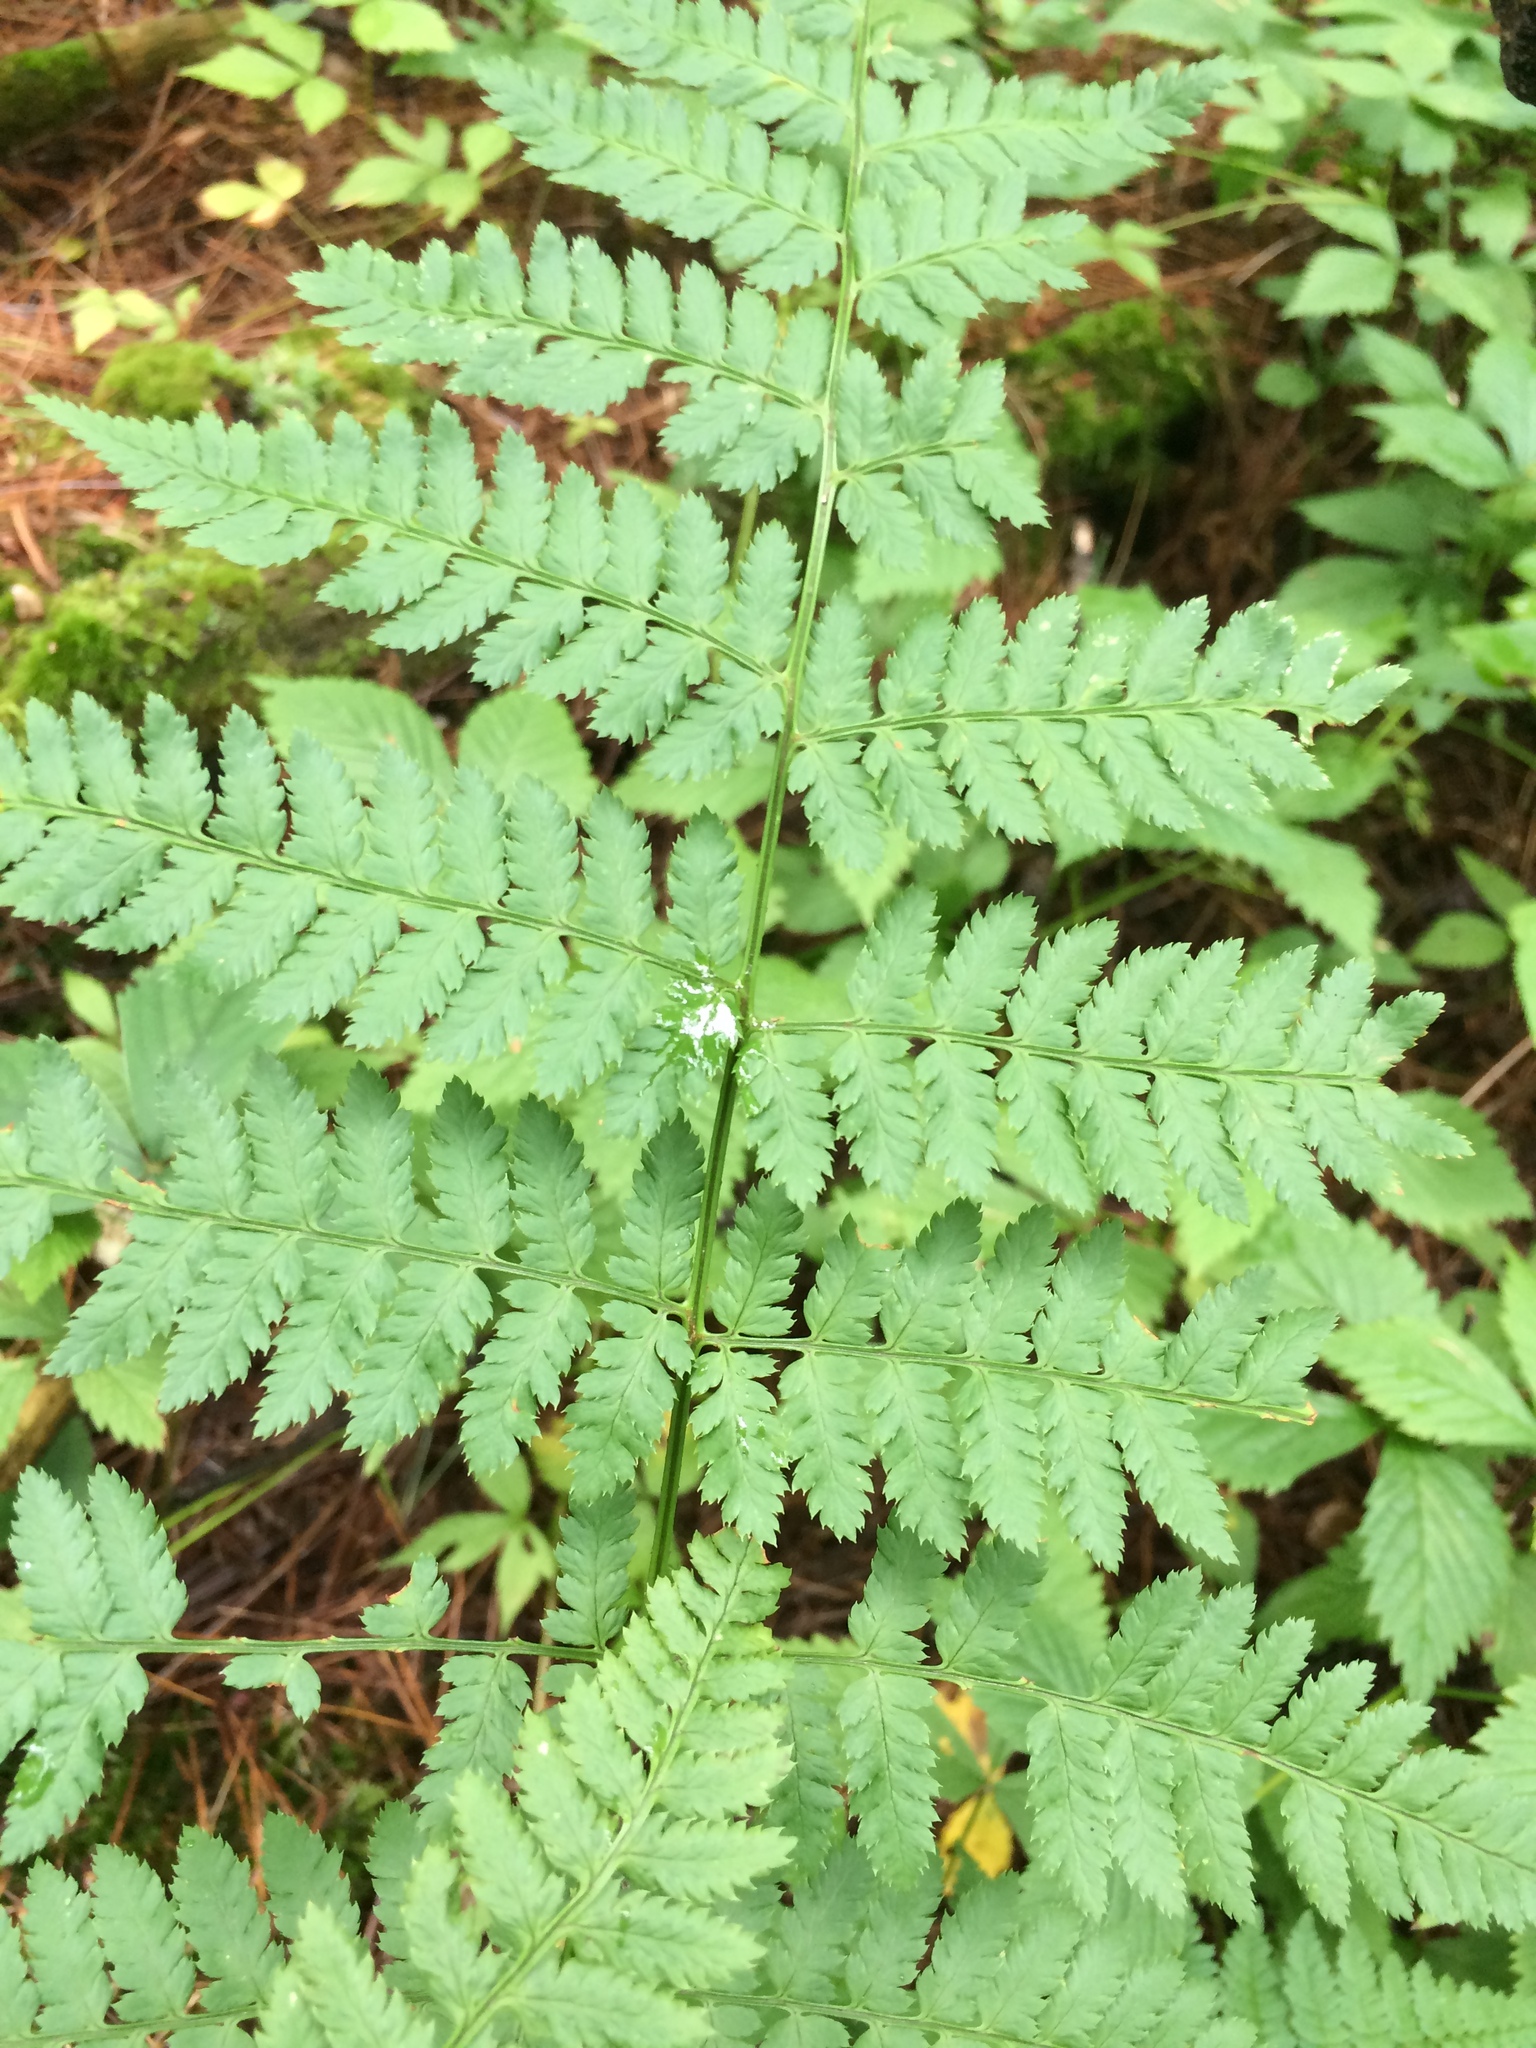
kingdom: Plantae
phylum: Tracheophyta
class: Polypodiopsida
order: Polypodiales
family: Dryopteridaceae
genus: Dryopteris
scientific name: Dryopteris carthusiana
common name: Narrow buckler-fern
